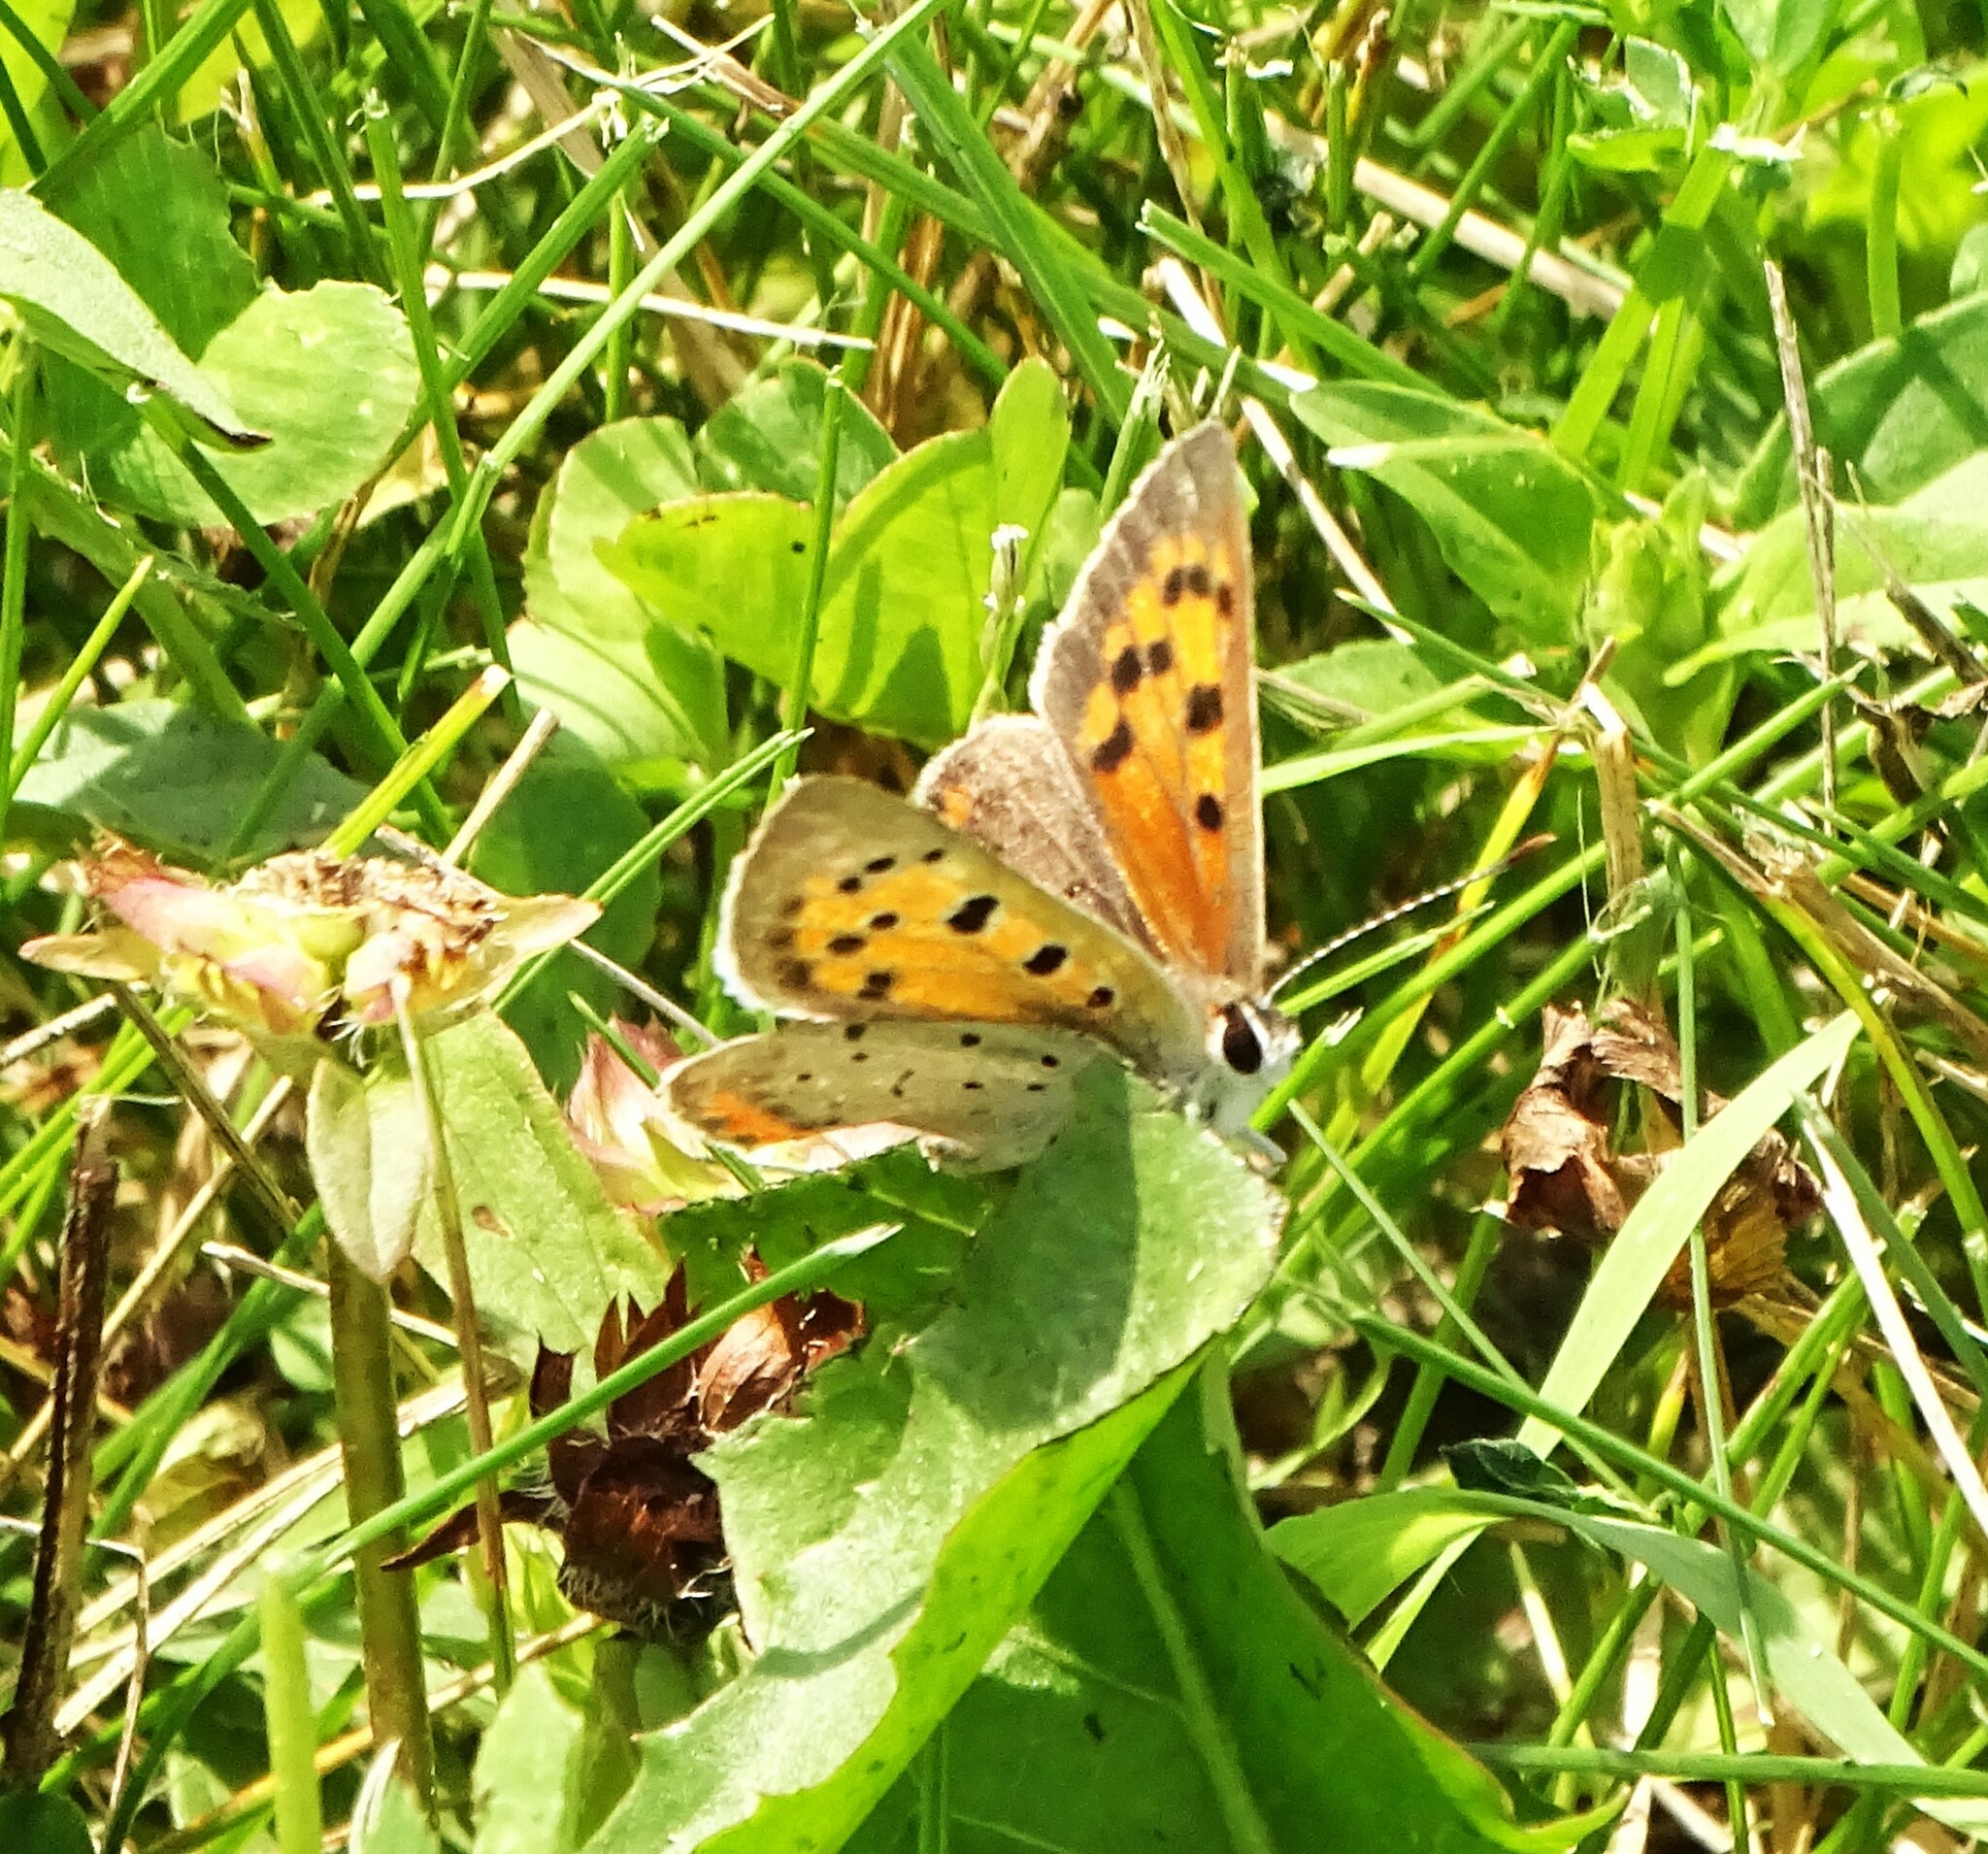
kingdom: Animalia
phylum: Arthropoda
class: Insecta
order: Lepidoptera
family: Lycaenidae
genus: Lycaena
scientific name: Lycaena hypophlaeas
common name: American copper
